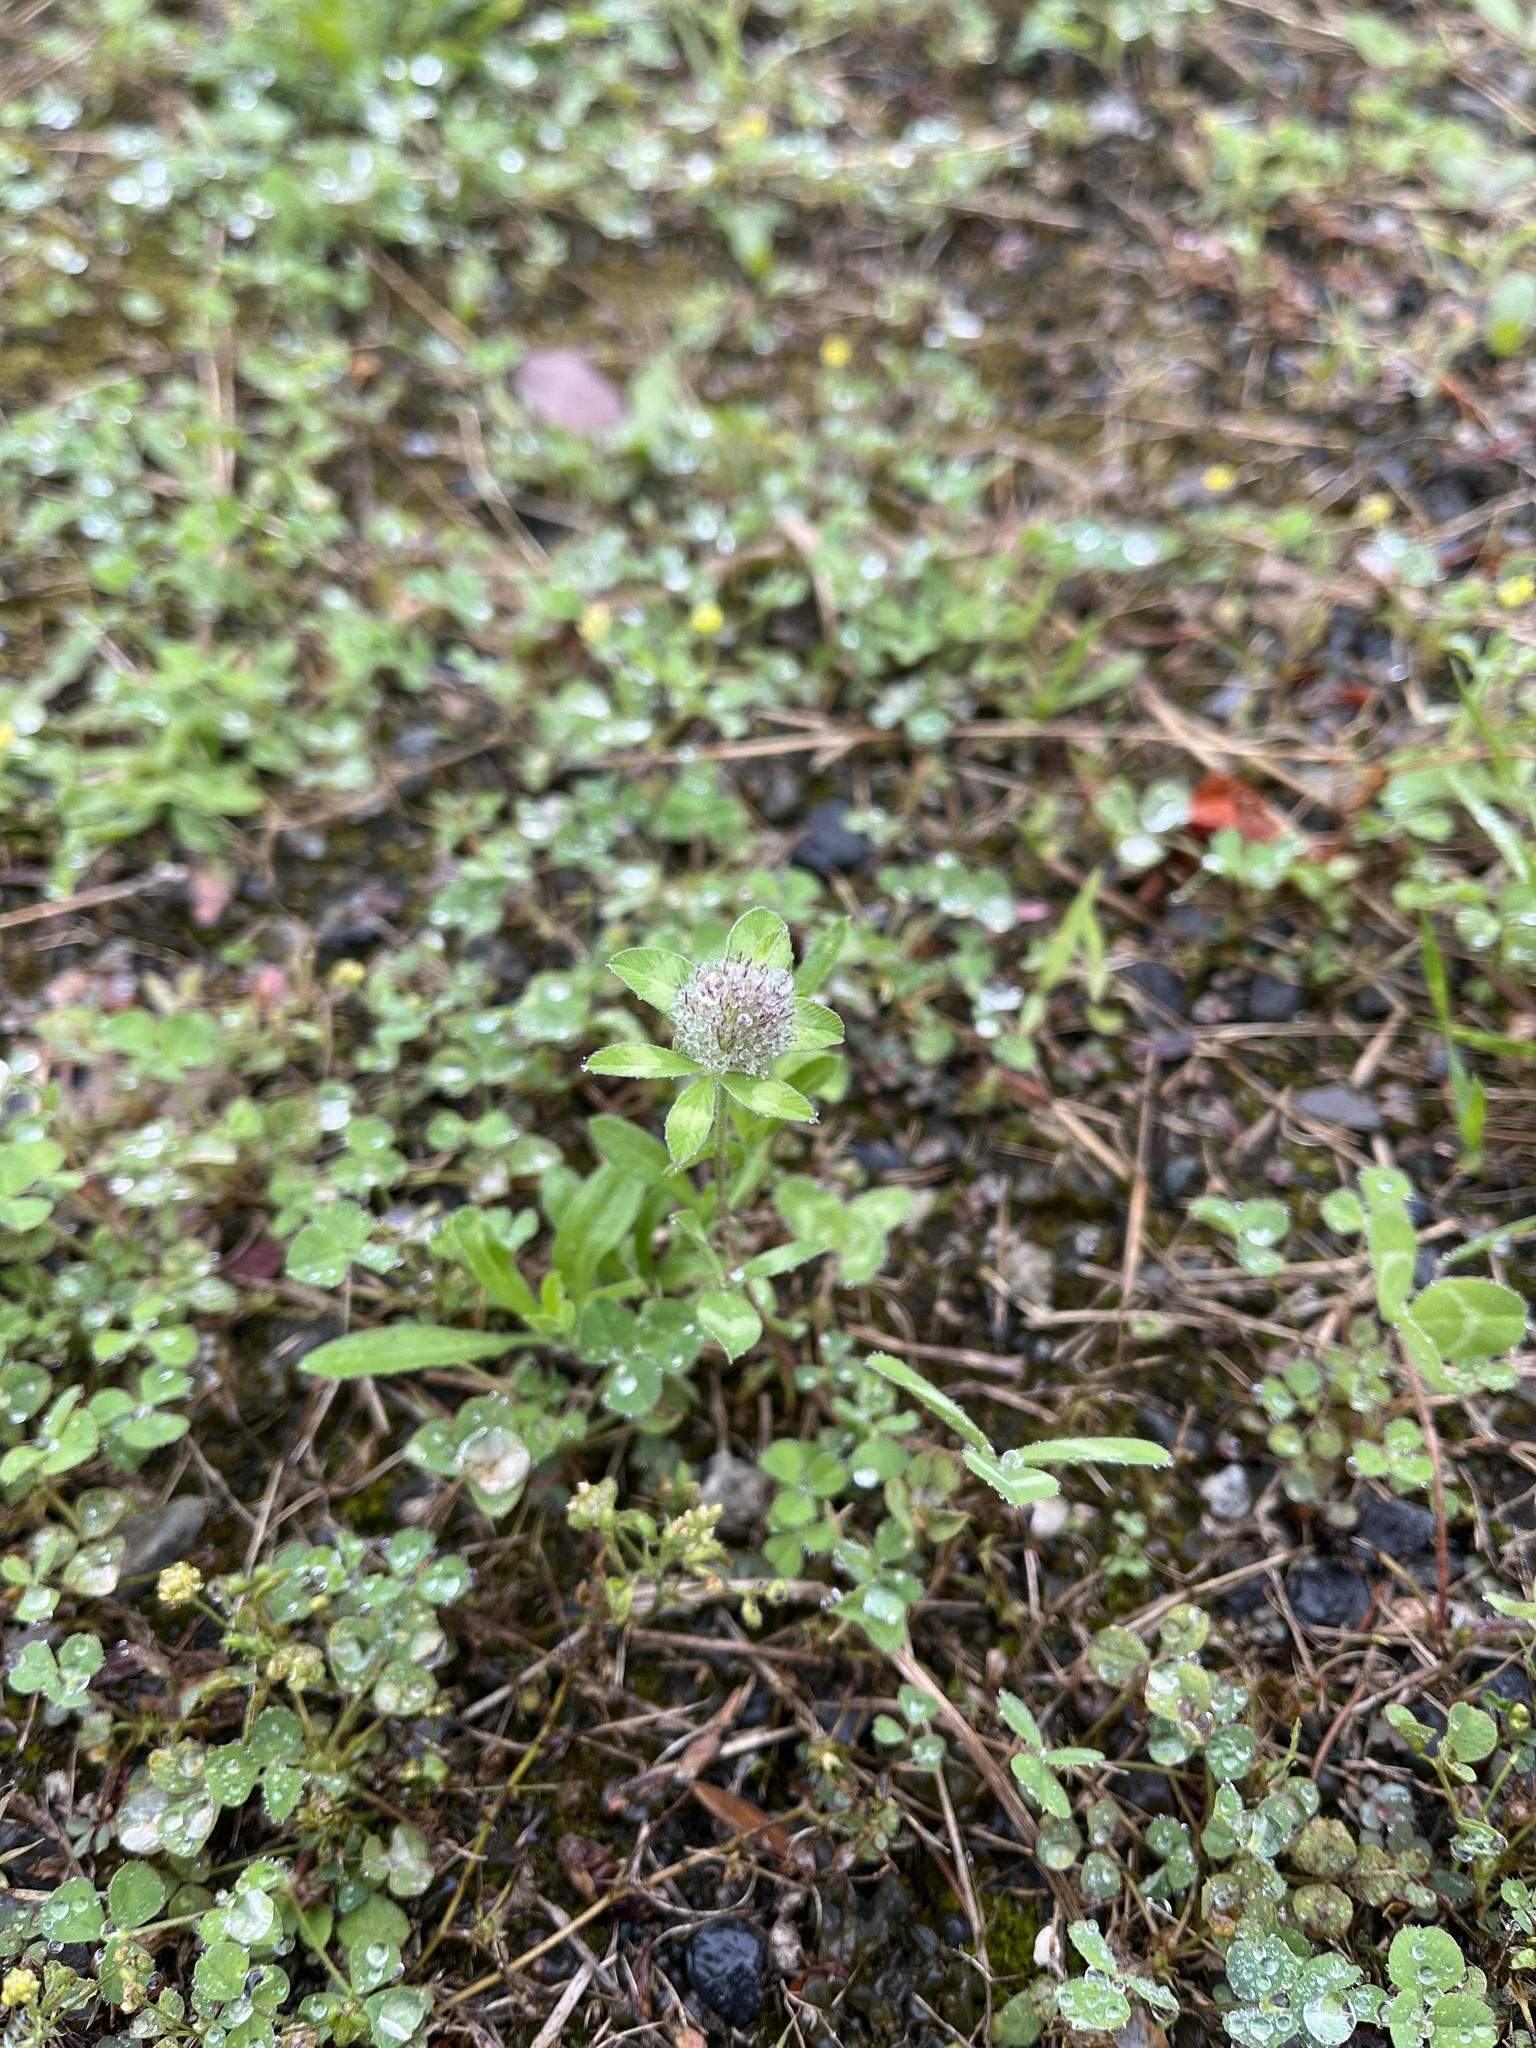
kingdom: Plantae
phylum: Tracheophyta
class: Magnoliopsida
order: Fabales
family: Fabaceae
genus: Trifolium
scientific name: Trifolium pratense
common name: Red clover
